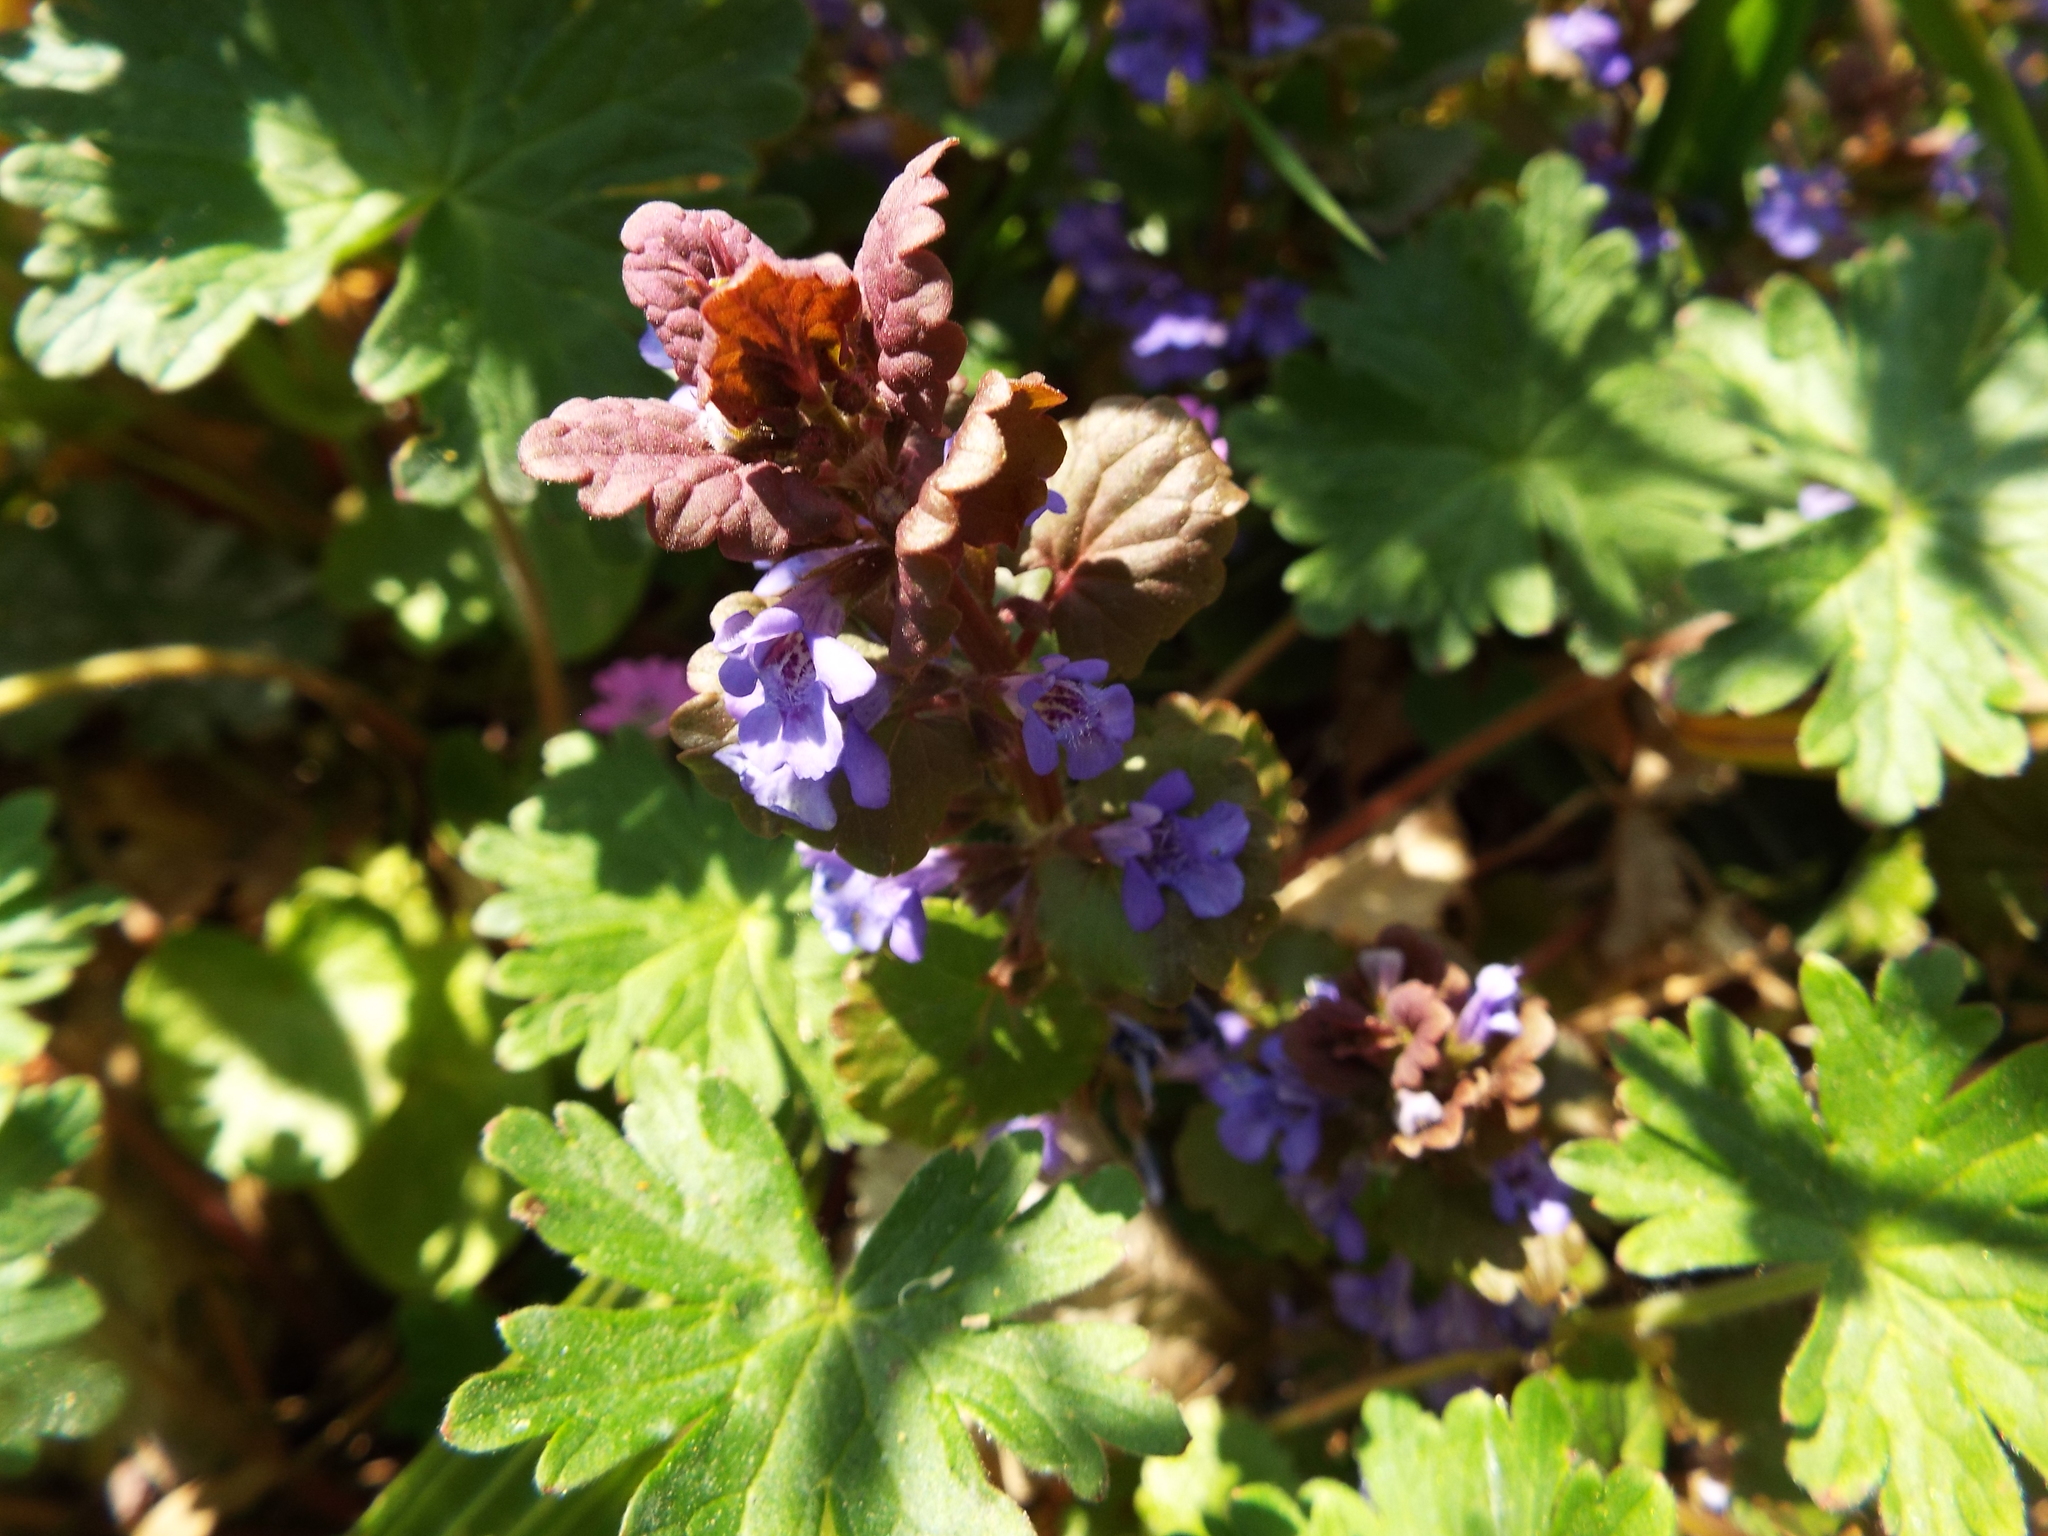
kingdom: Plantae
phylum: Tracheophyta
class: Magnoliopsida
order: Lamiales
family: Lamiaceae
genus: Glechoma
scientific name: Glechoma hederacea
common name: Ground ivy
